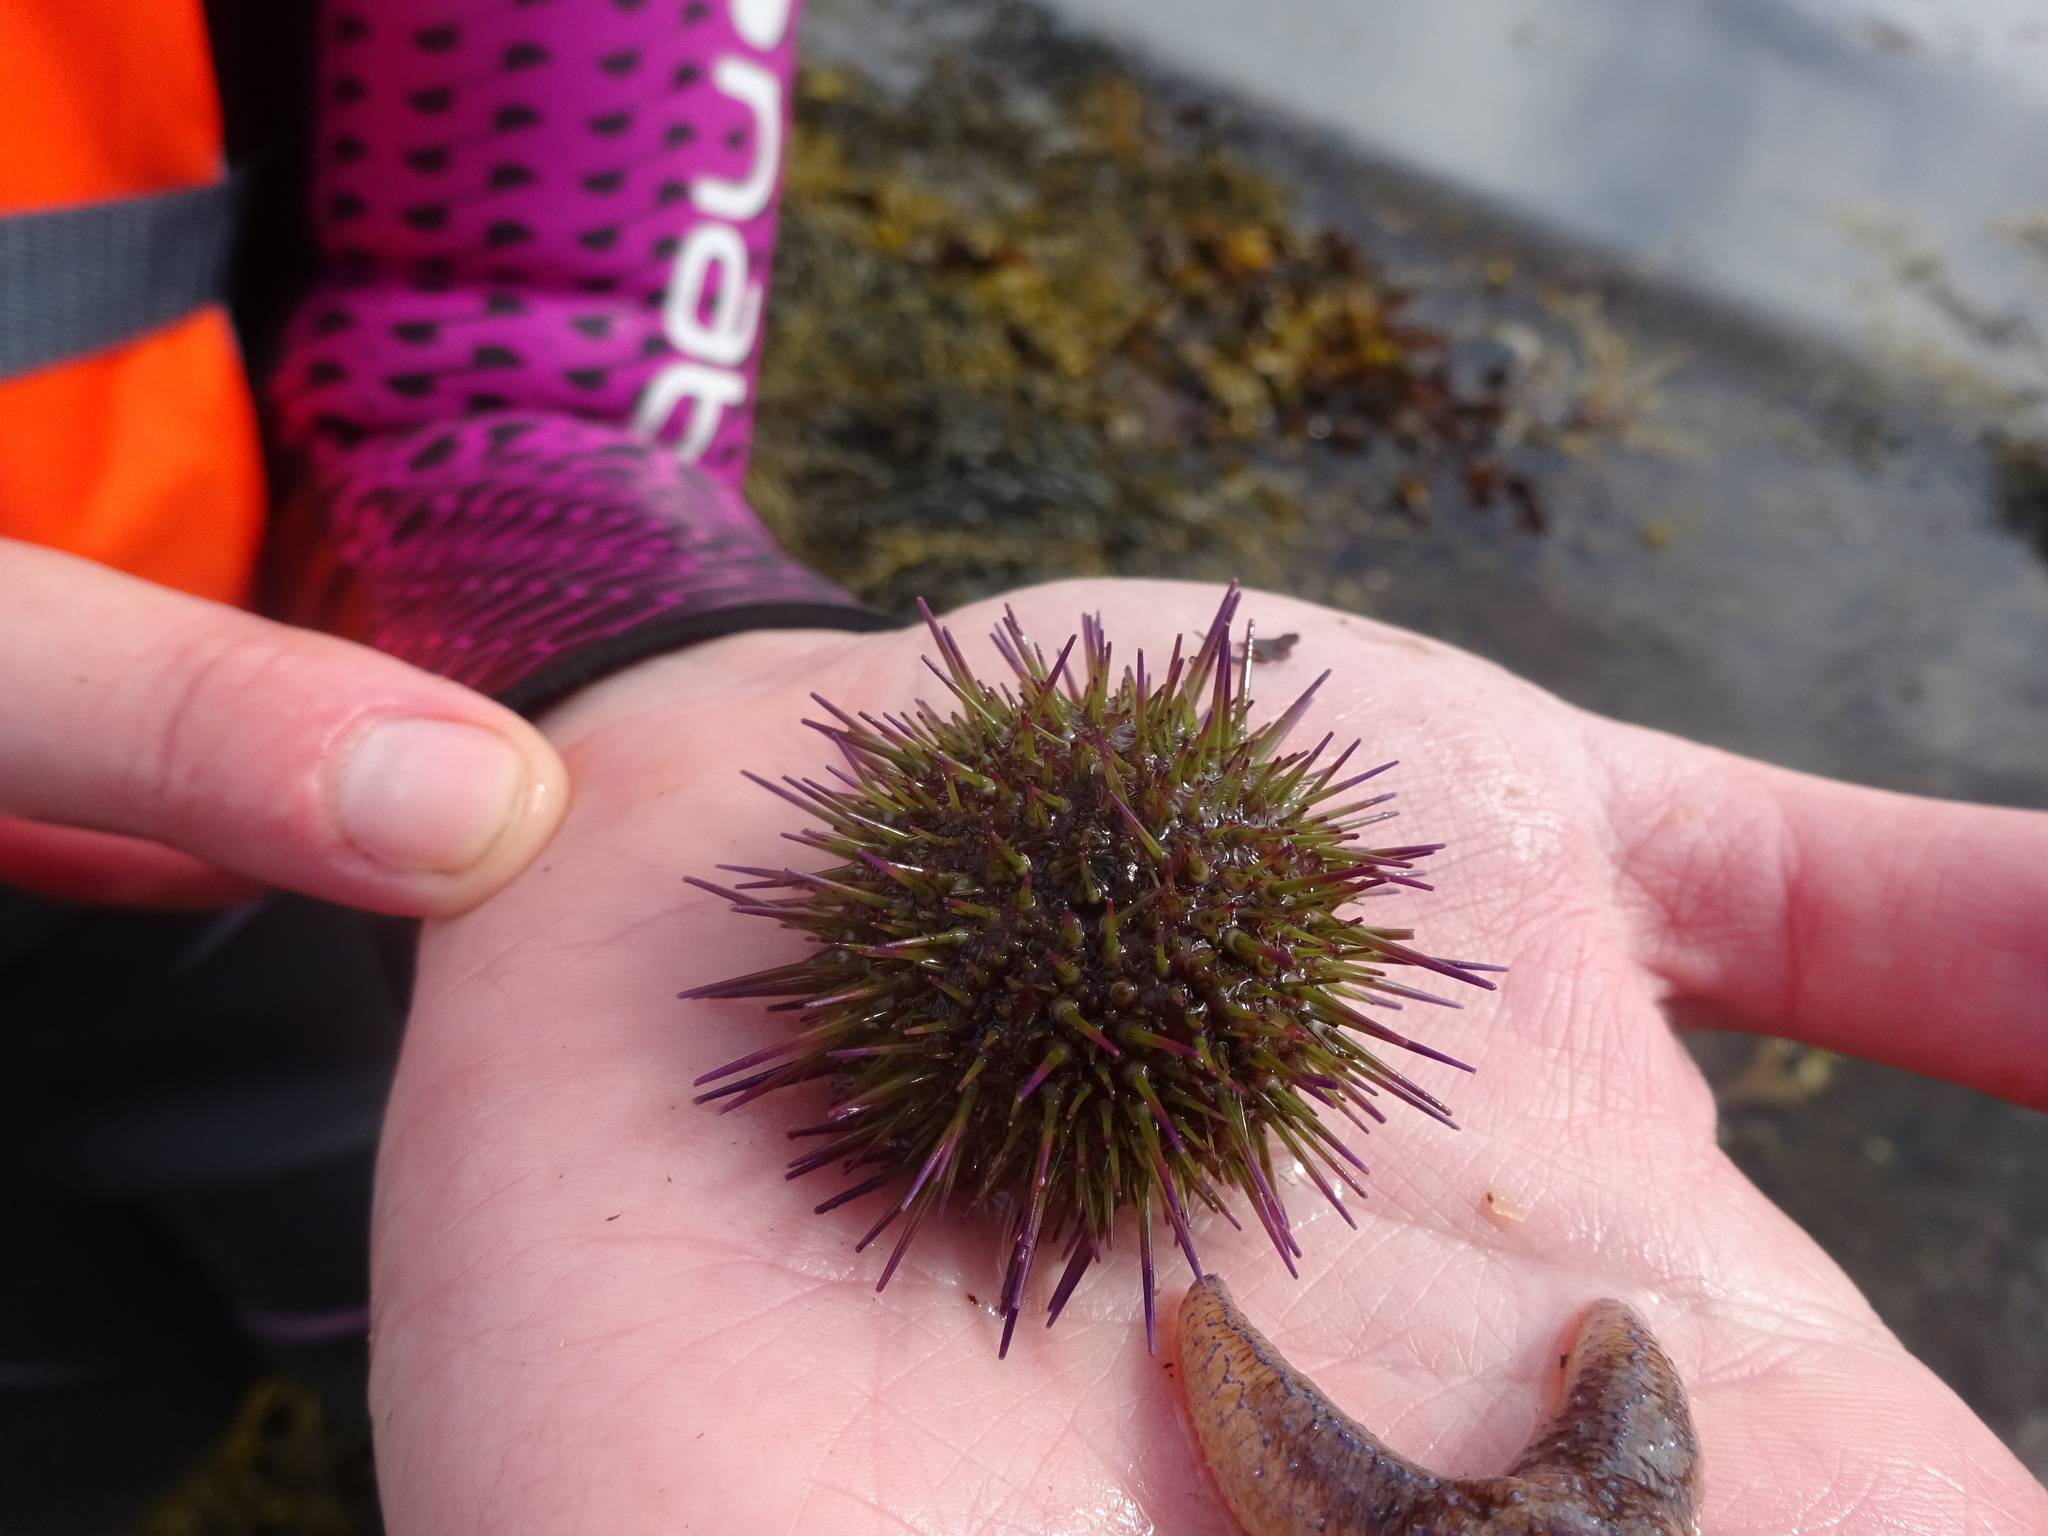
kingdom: Animalia
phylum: Echinodermata
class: Echinoidea
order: Camarodonta
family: Parechinidae
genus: Psammechinus
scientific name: Psammechinus miliaris
